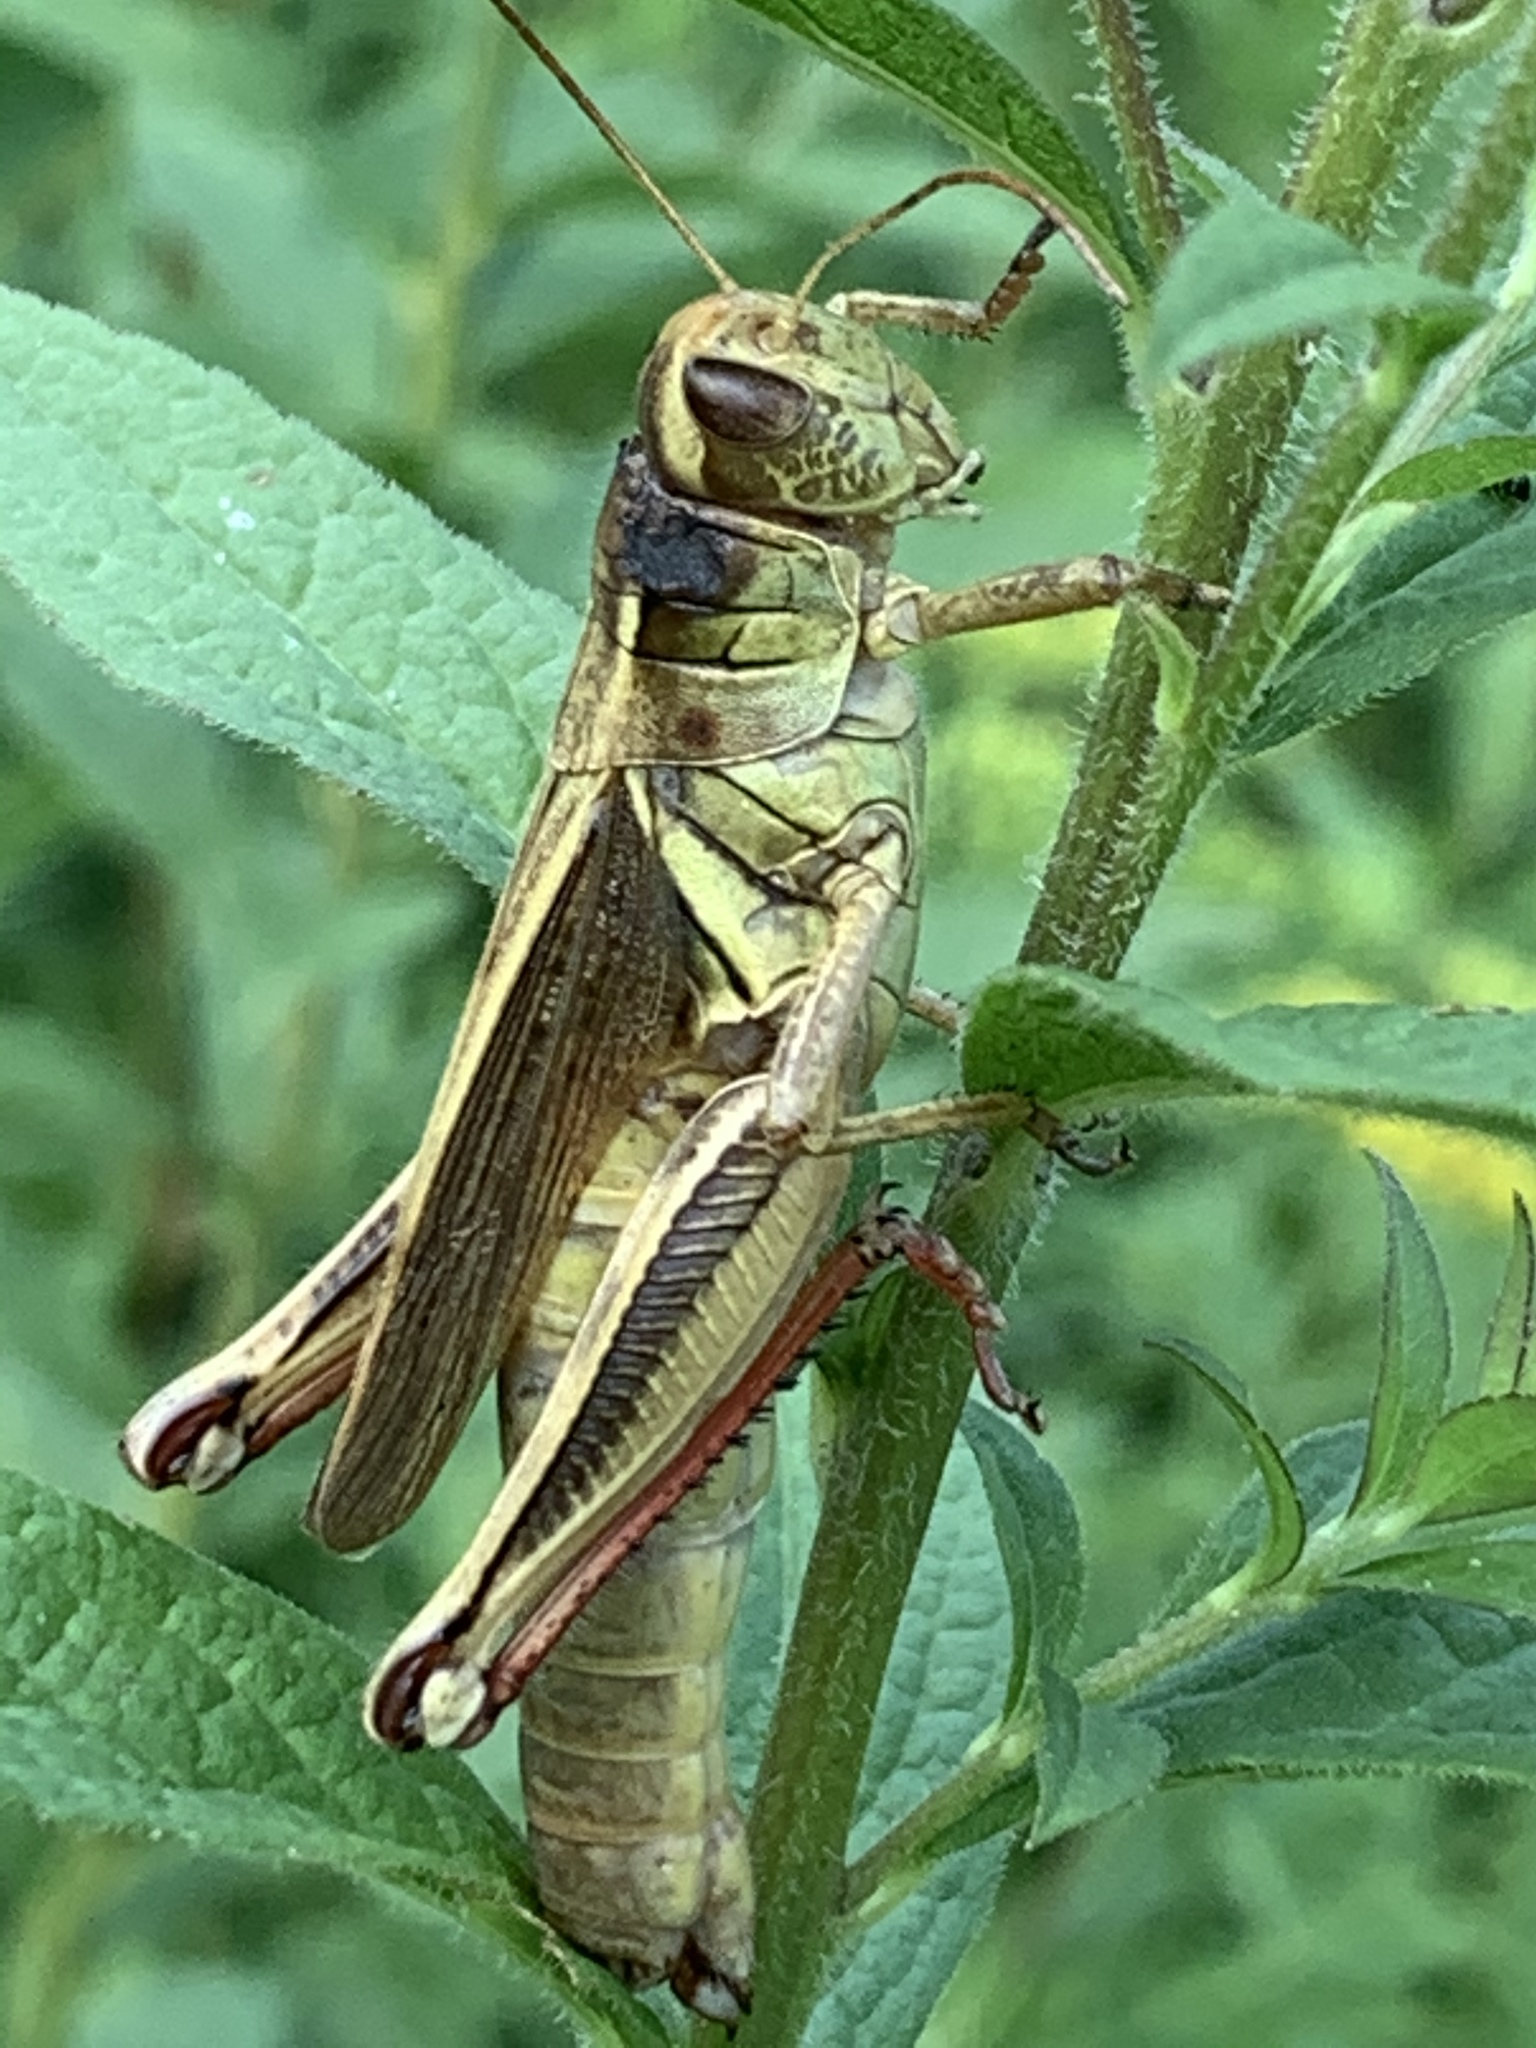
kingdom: Animalia
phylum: Arthropoda
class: Insecta
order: Orthoptera
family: Acrididae
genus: Melanoplus
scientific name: Melanoplus bivittatus
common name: Two-striped grasshopper
